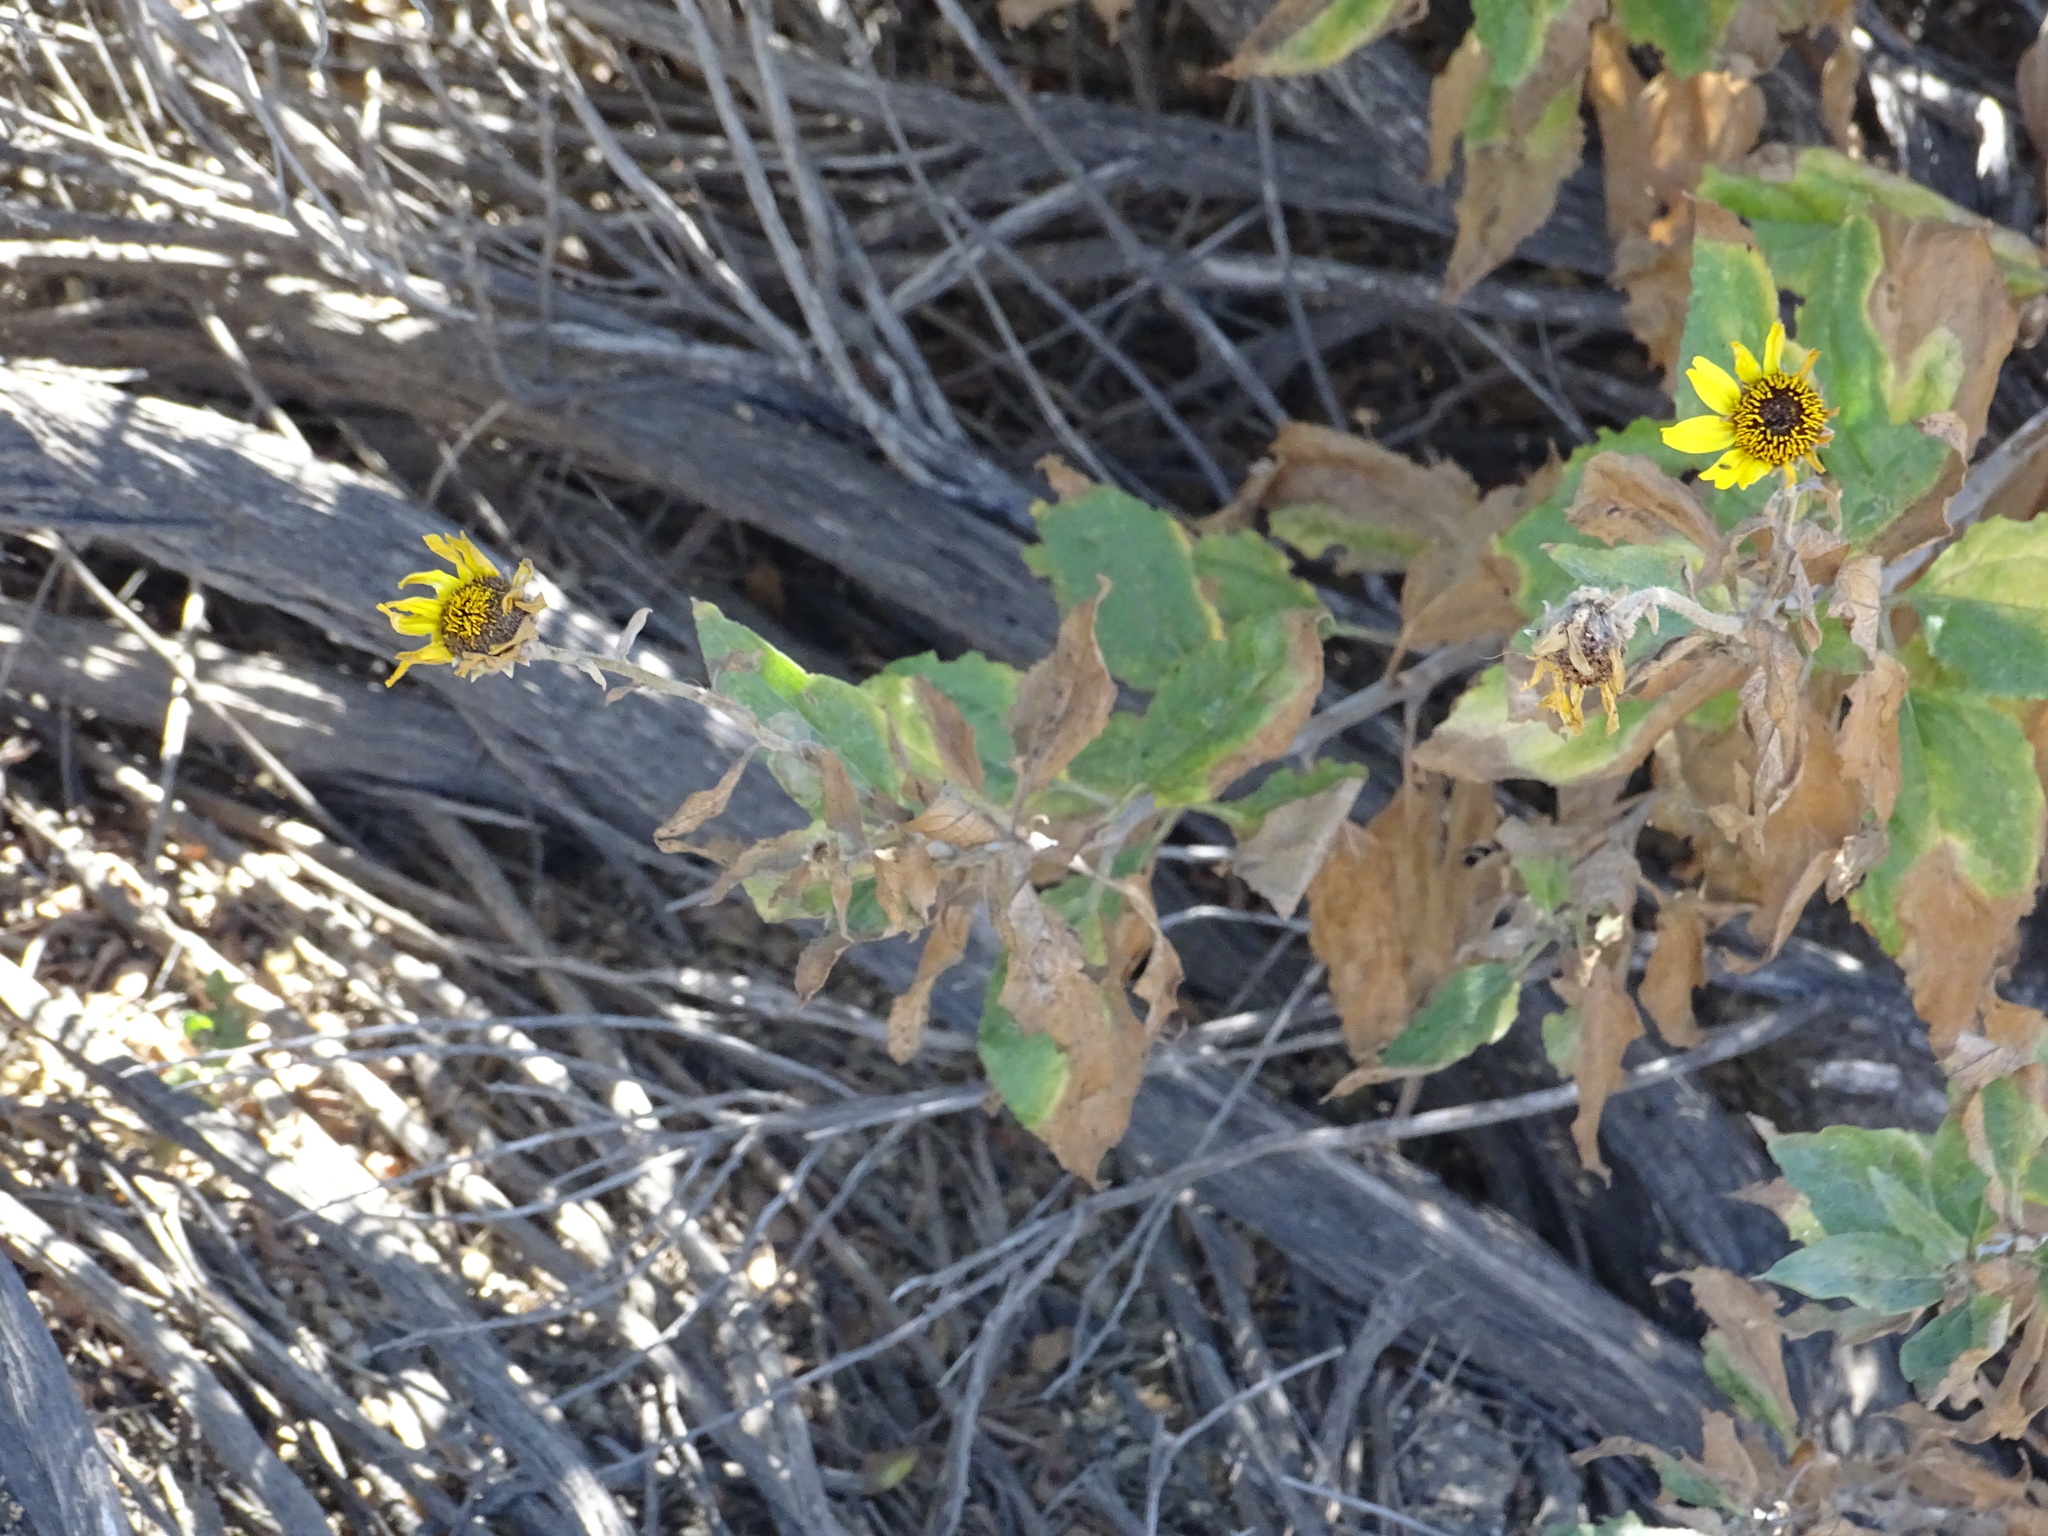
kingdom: Plantae
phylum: Tracheophyta
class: Magnoliopsida
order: Asterales
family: Asteraceae
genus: Encelia
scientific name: Encelia californica
